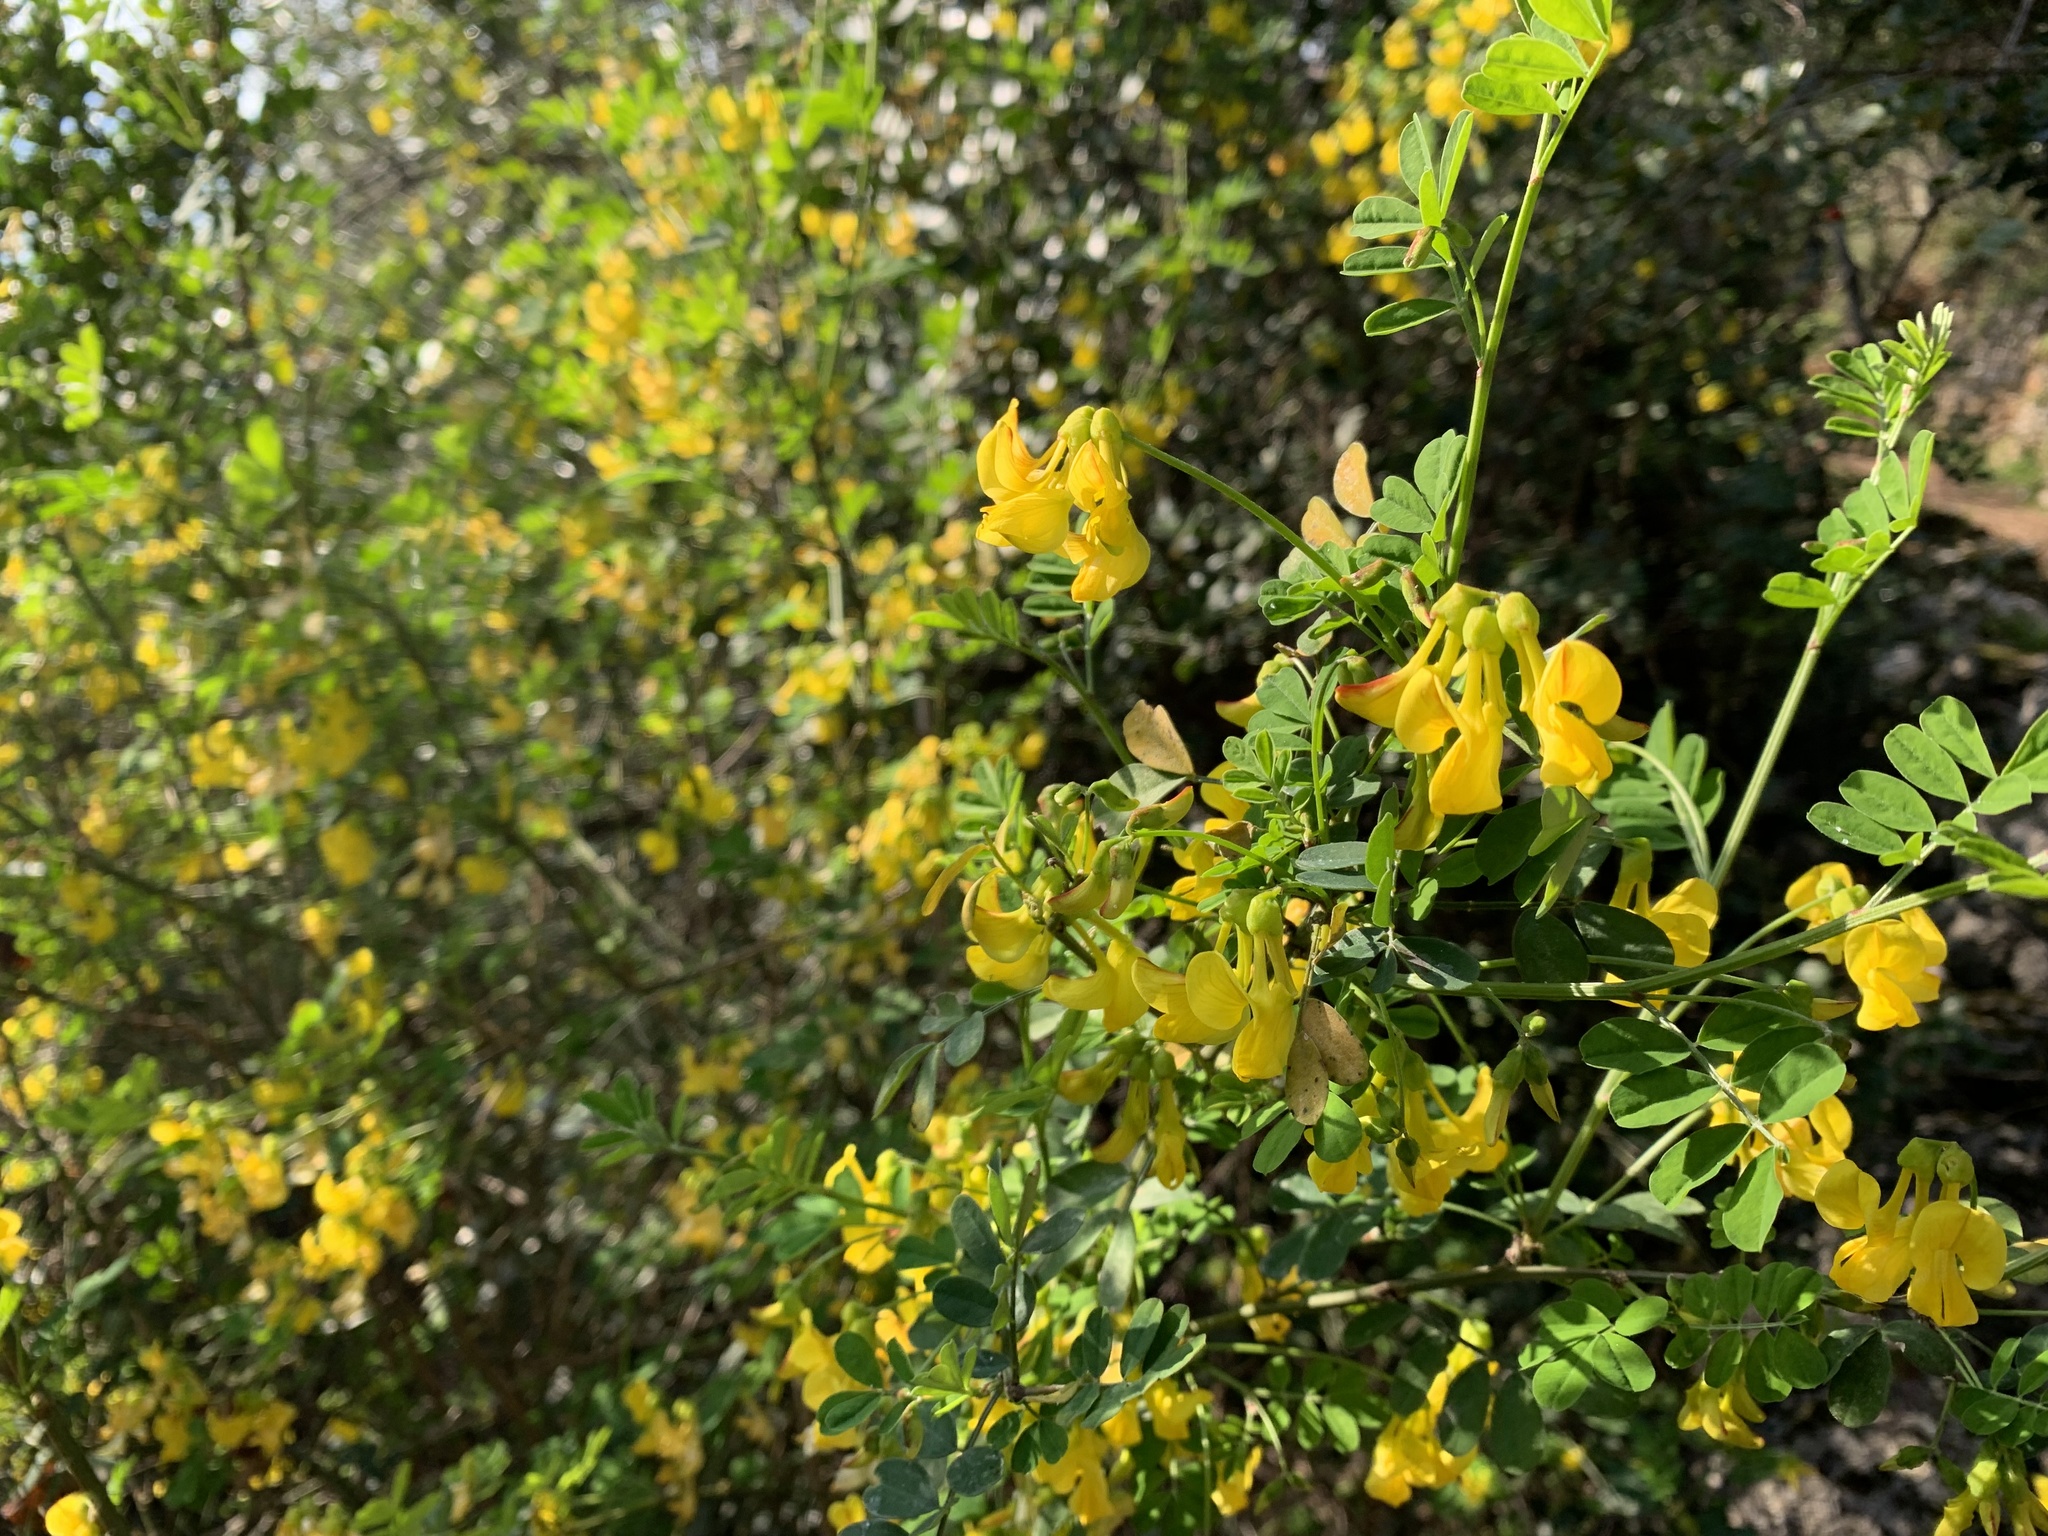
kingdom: Plantae
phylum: Tracheophyta
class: Magnoliopsida
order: Fabales
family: Fabaceae
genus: Hippocrepis
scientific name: Hippocrepis emerus
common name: Scorpion senna
